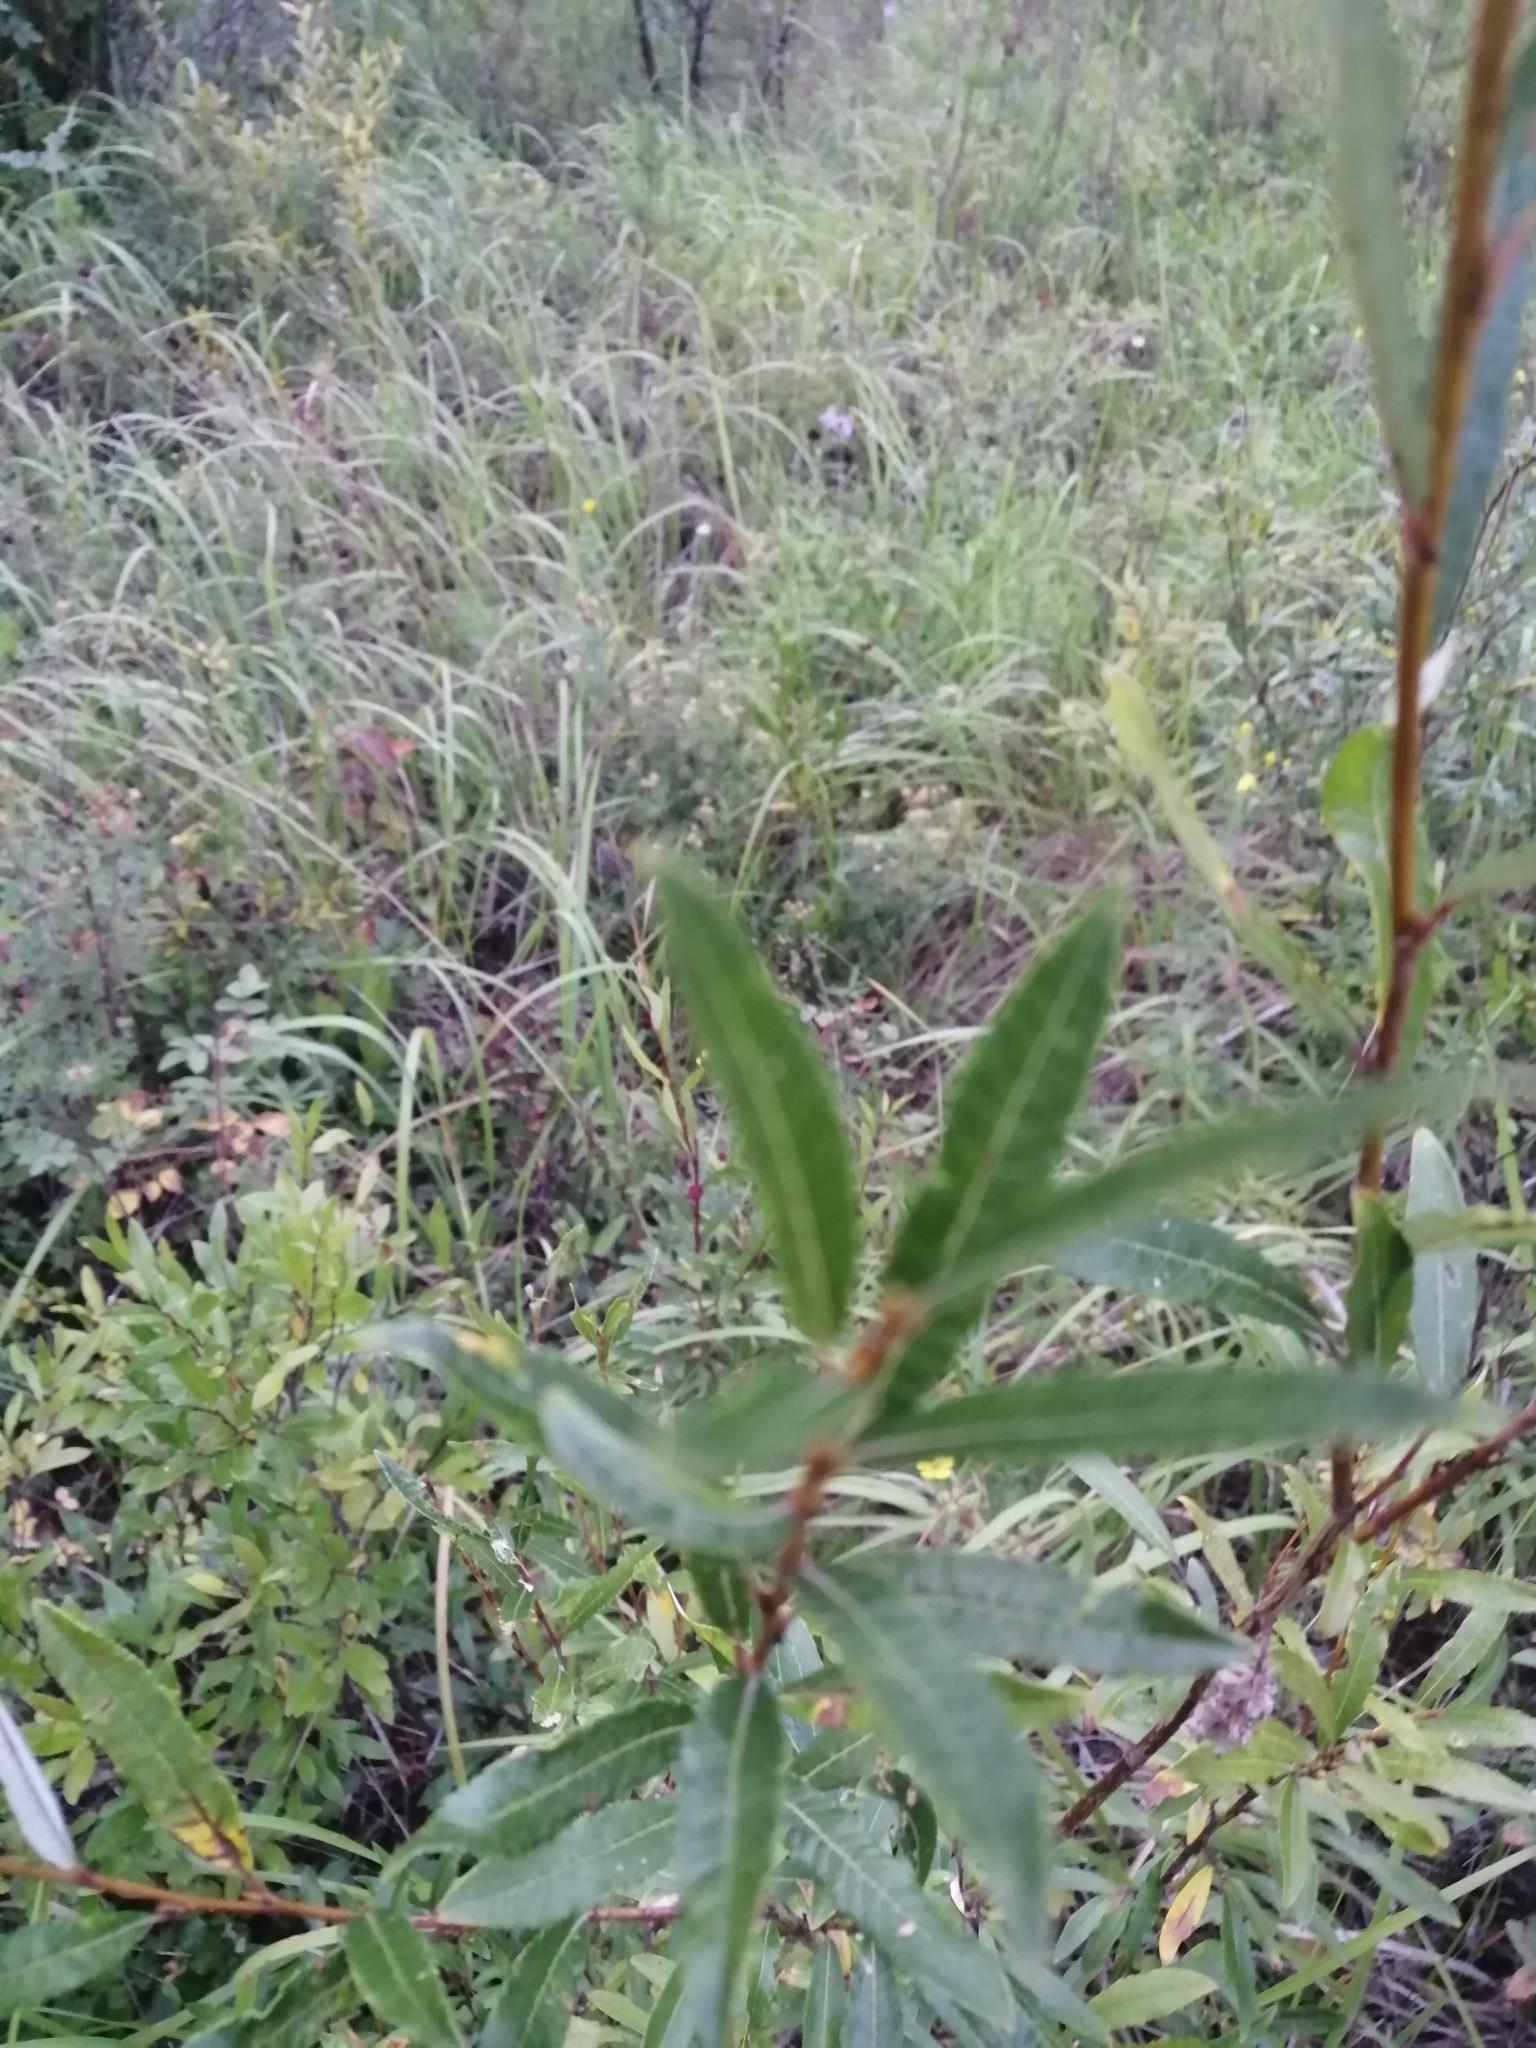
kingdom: Plantae
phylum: Tracheophyta
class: Magnoliopsida
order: Malpighiales
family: Salicaceae
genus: Salix
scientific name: Salix rosmarinifolia
